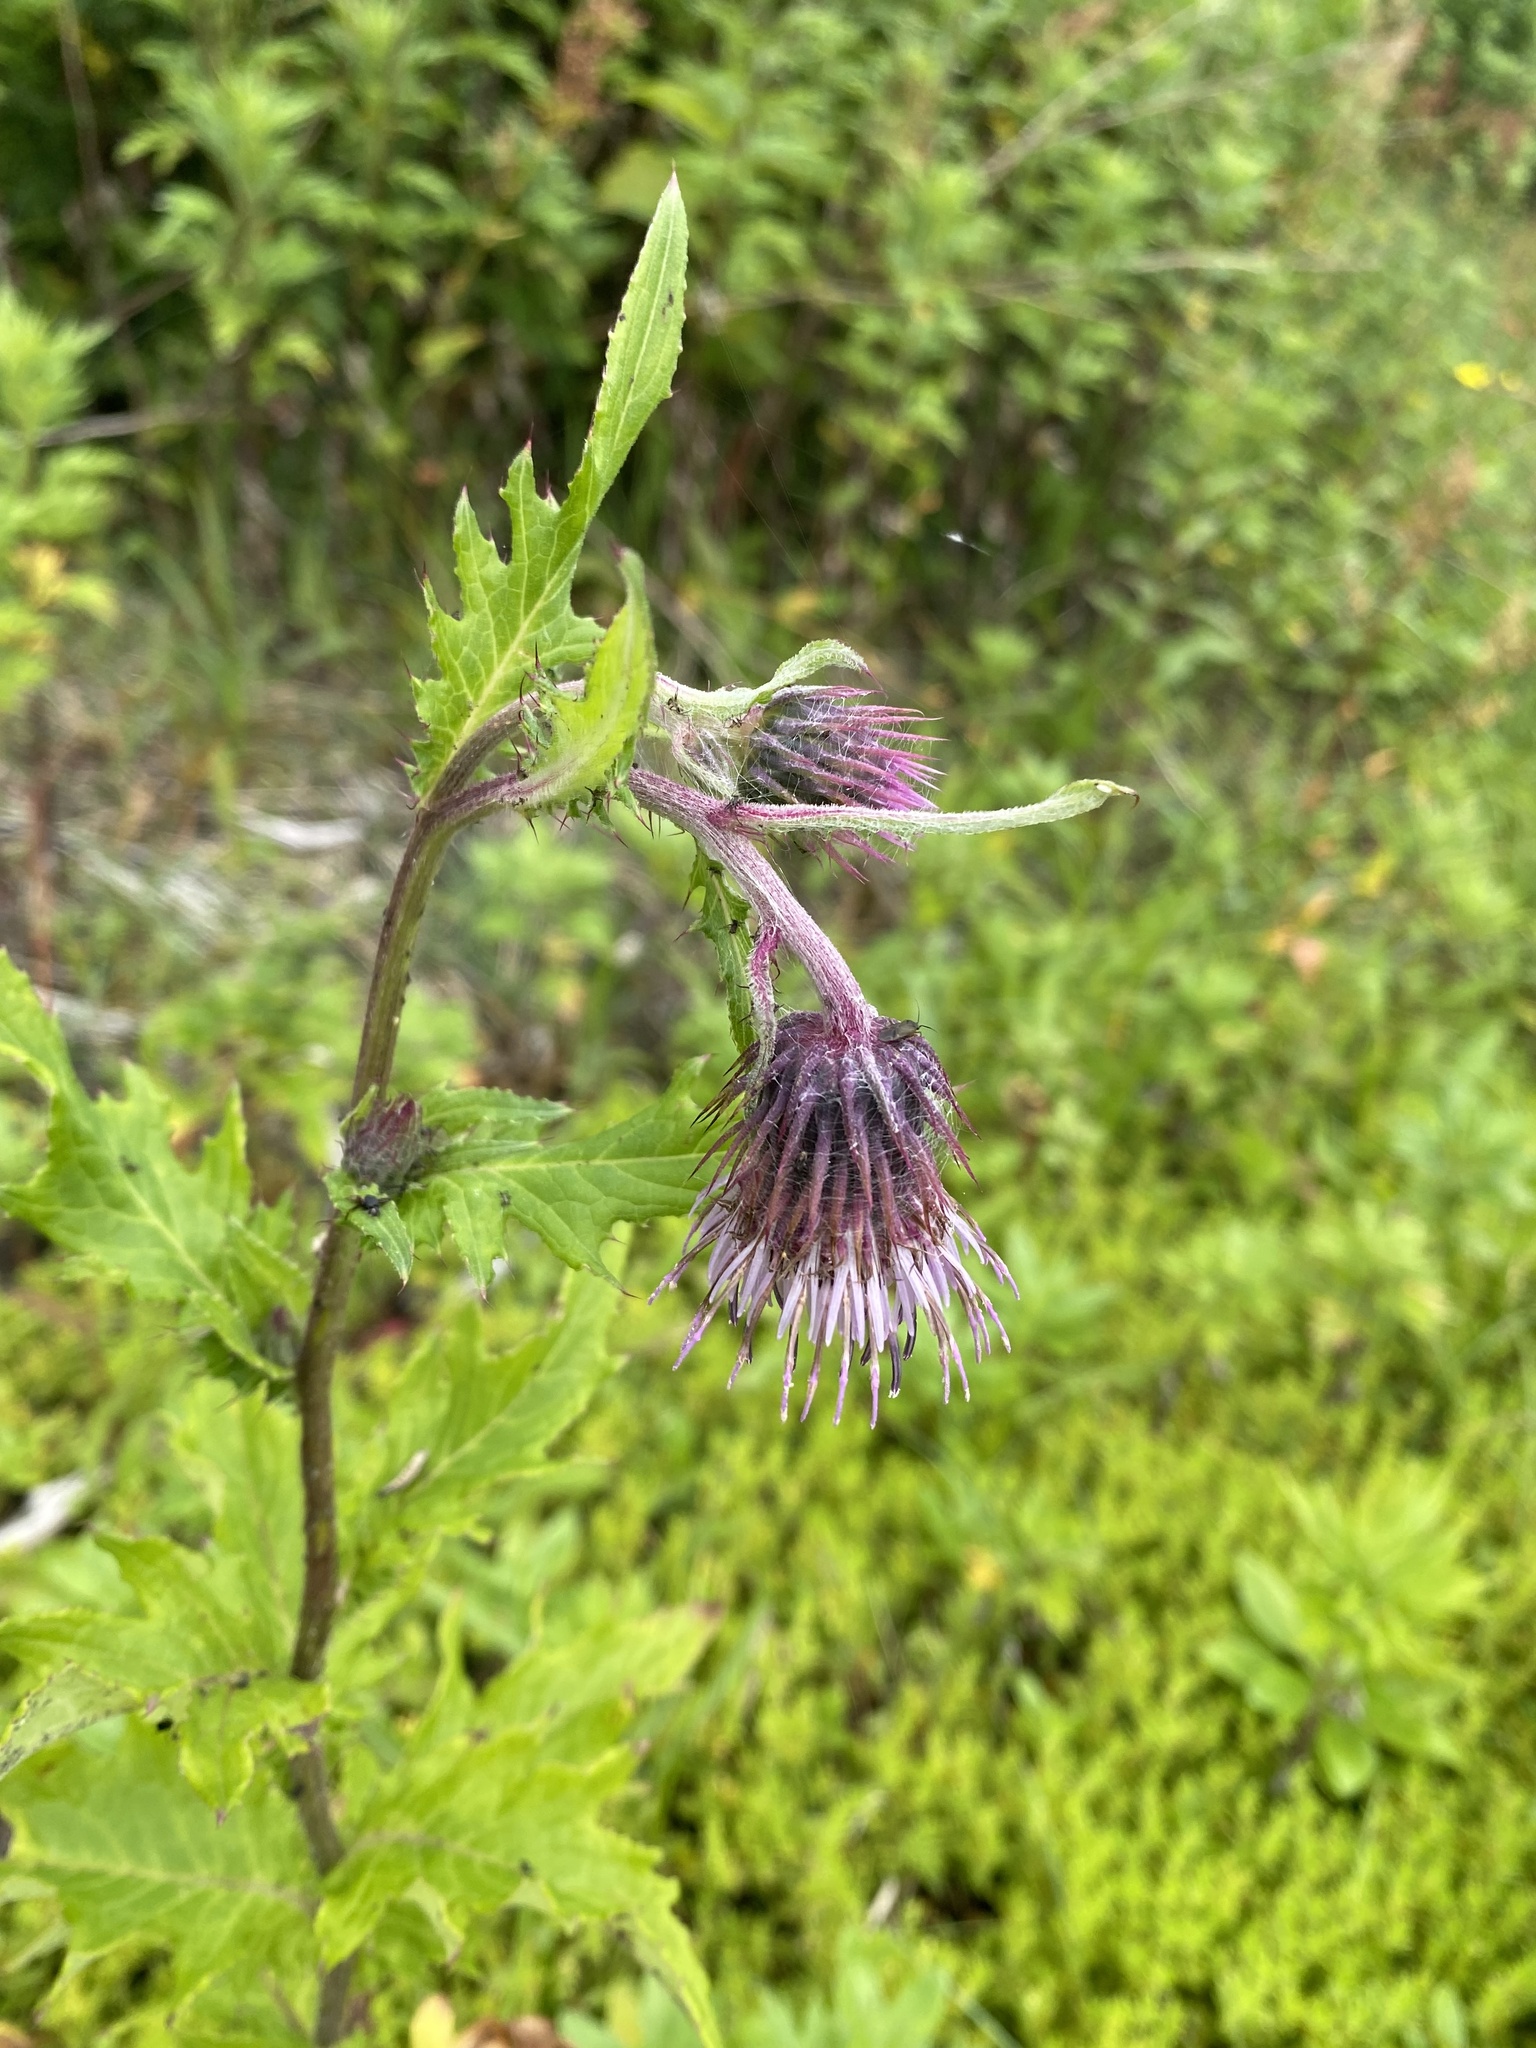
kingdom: Plantae
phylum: Tracheophyta
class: Magnoliopsida
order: Asterales
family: Asteraceae
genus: Cirsium
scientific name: Cirsium kamtschaticum
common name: Kamchatka thistle
